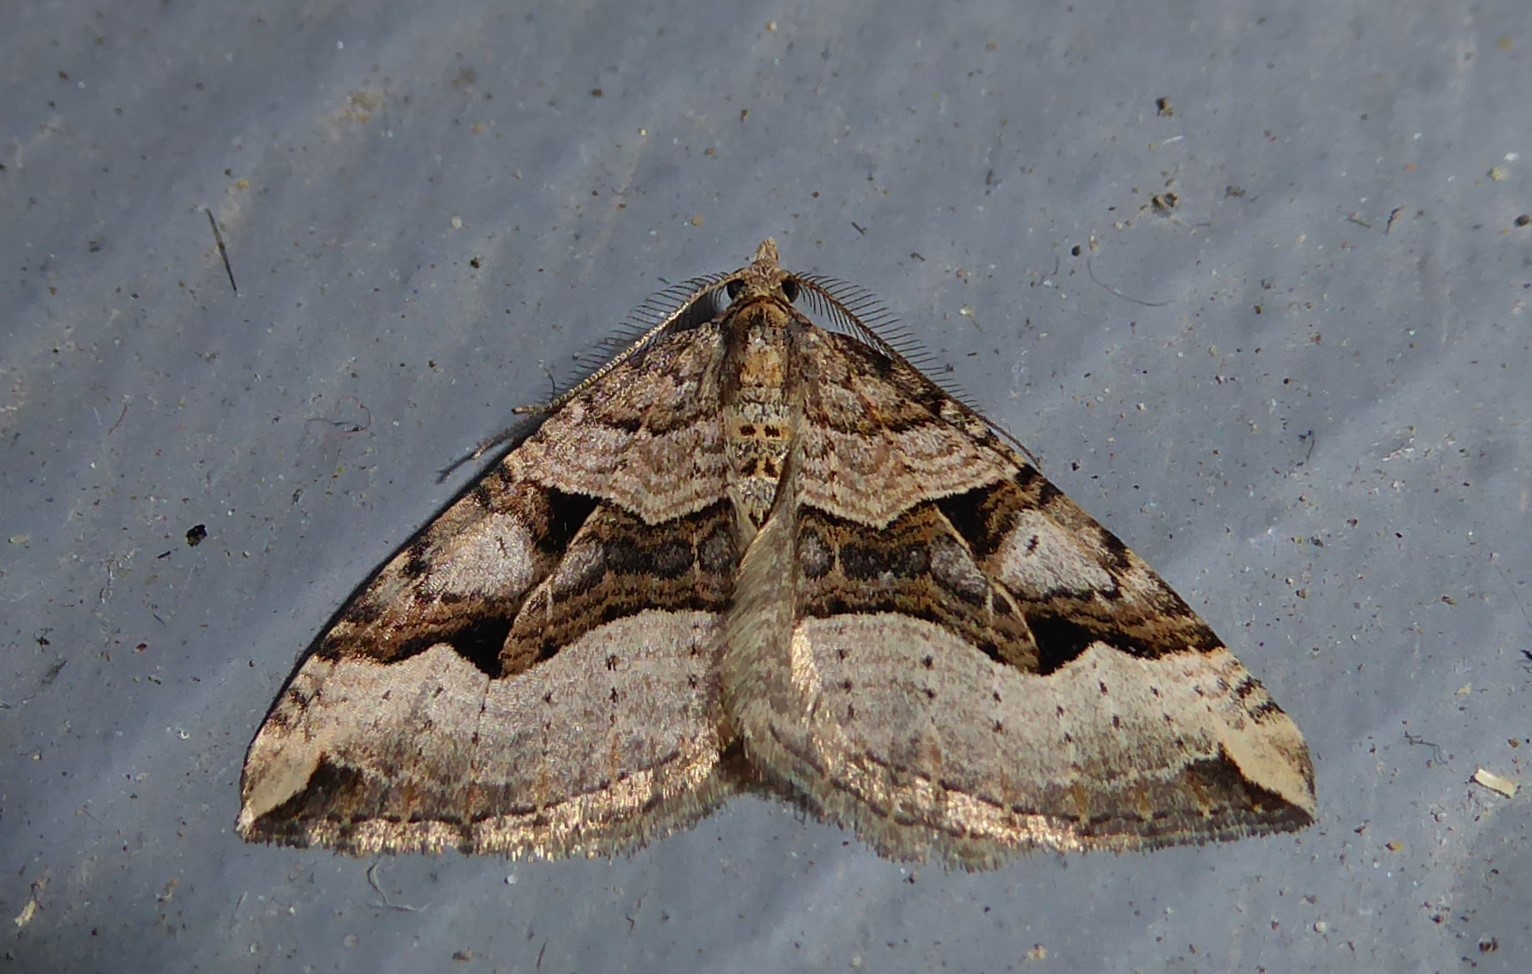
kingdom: Animalia
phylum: Arthropoda
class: Insecta
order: Lepidoptera
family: Geometridae
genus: Xanthorhoe
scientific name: Xanthorhoe semifissata
